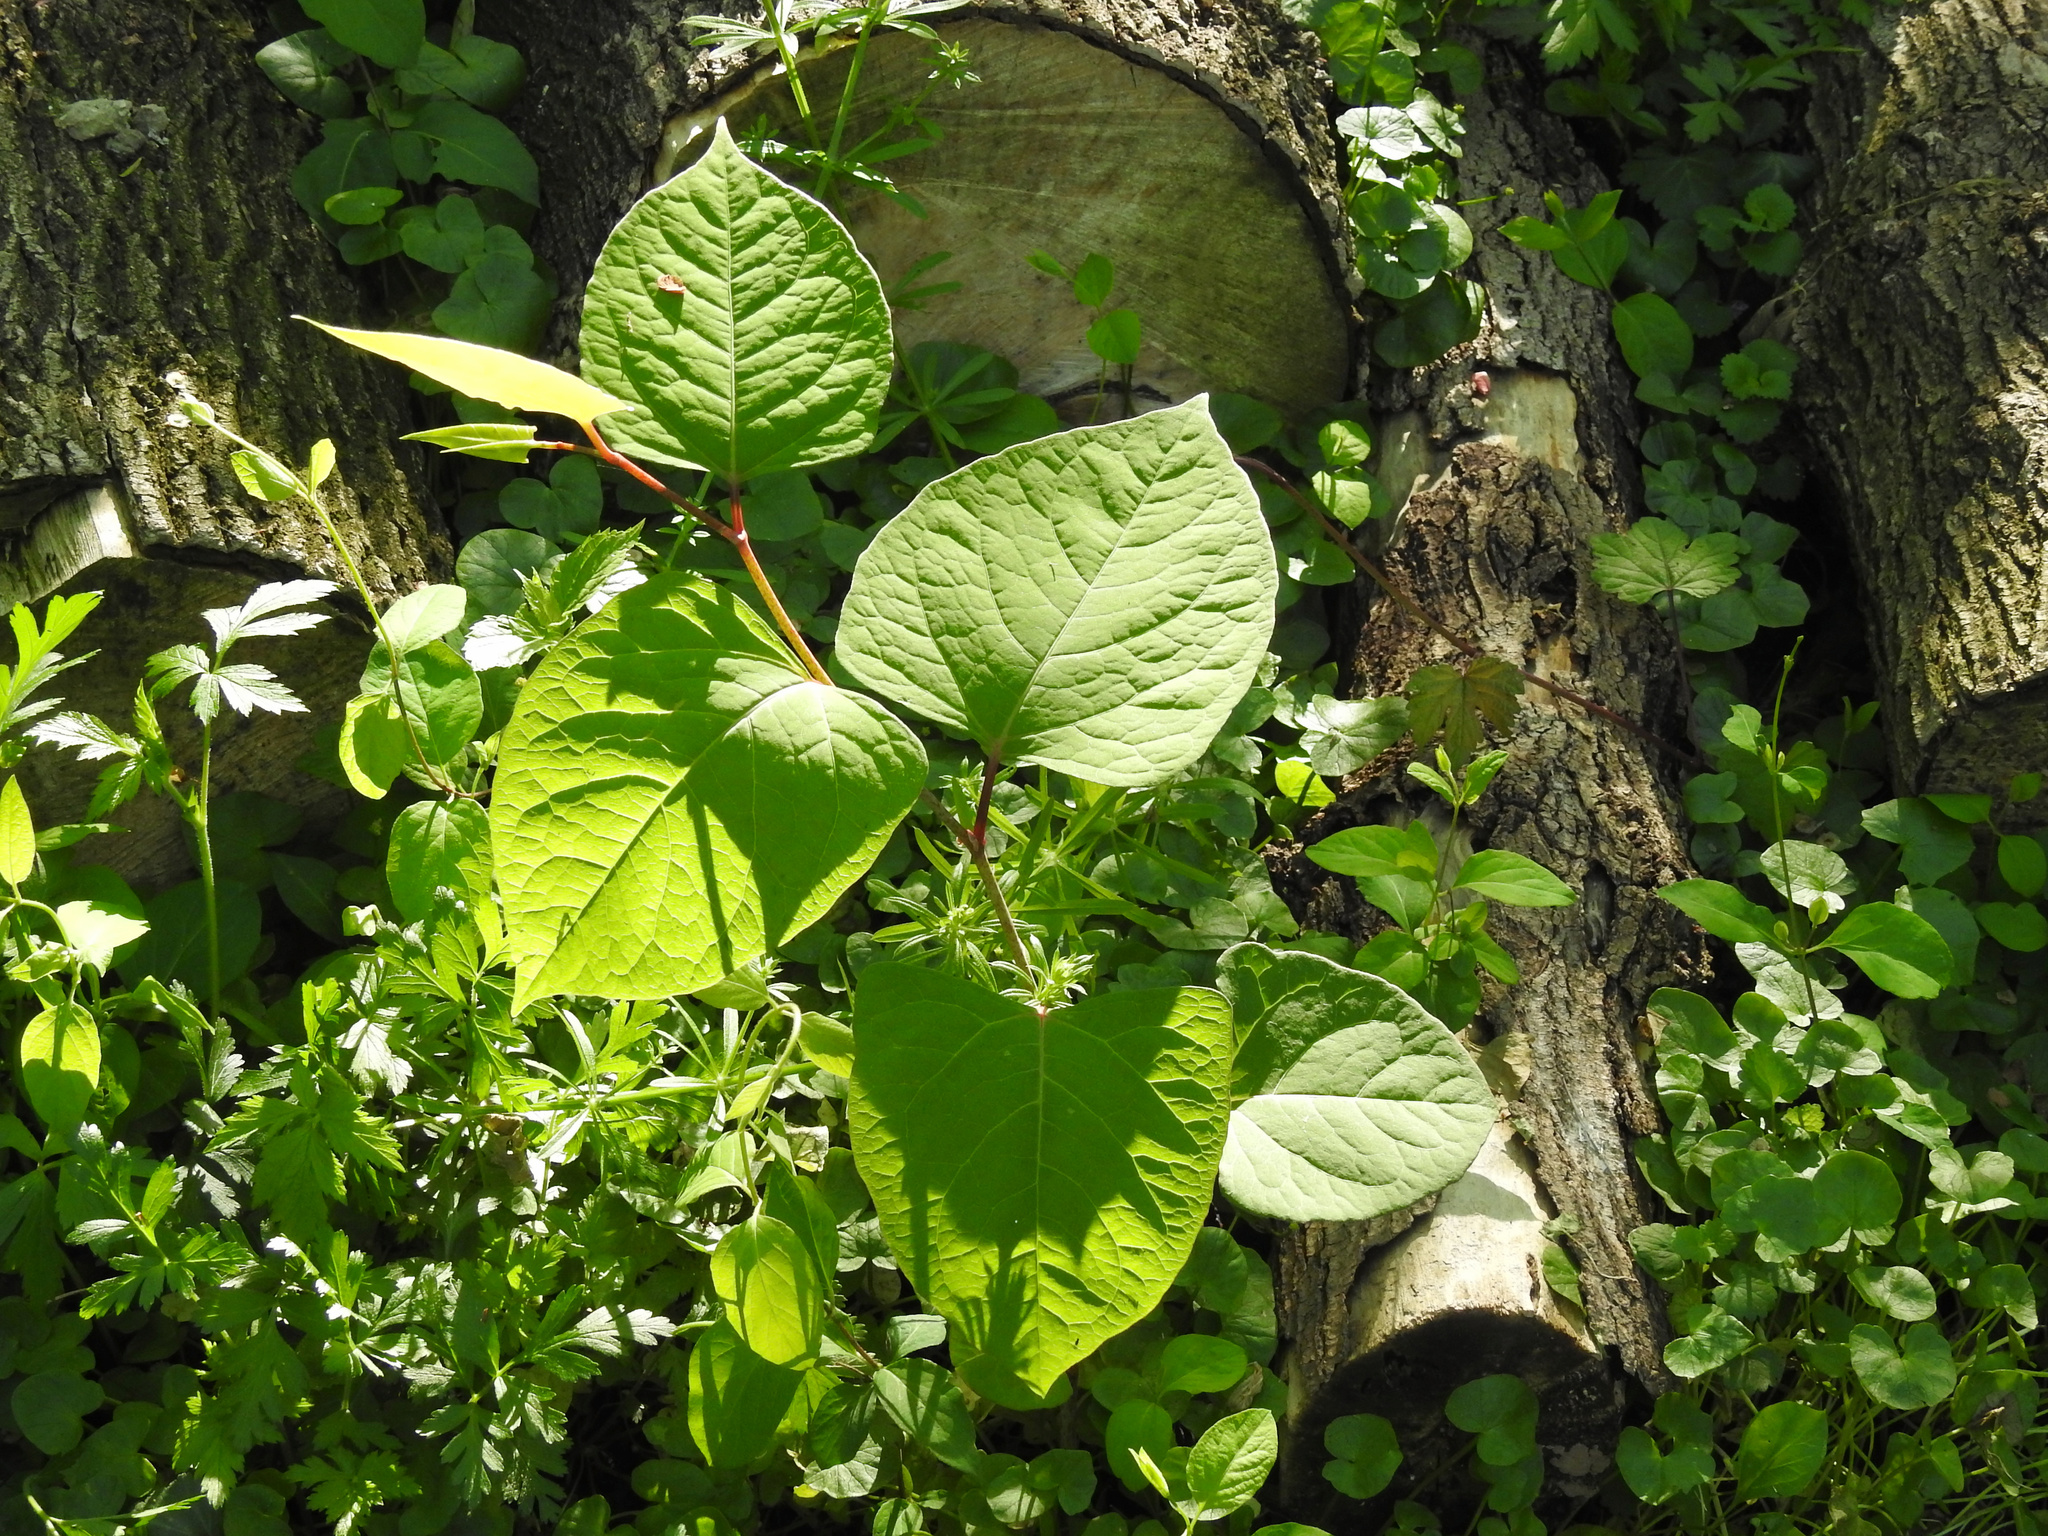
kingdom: Plantae
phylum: Tracheophyta
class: Magnoliopsida
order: Caryophyllales
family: Polygonaceae
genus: Reynoutria
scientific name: Reynoutria japonica
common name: Japanese knotweed
